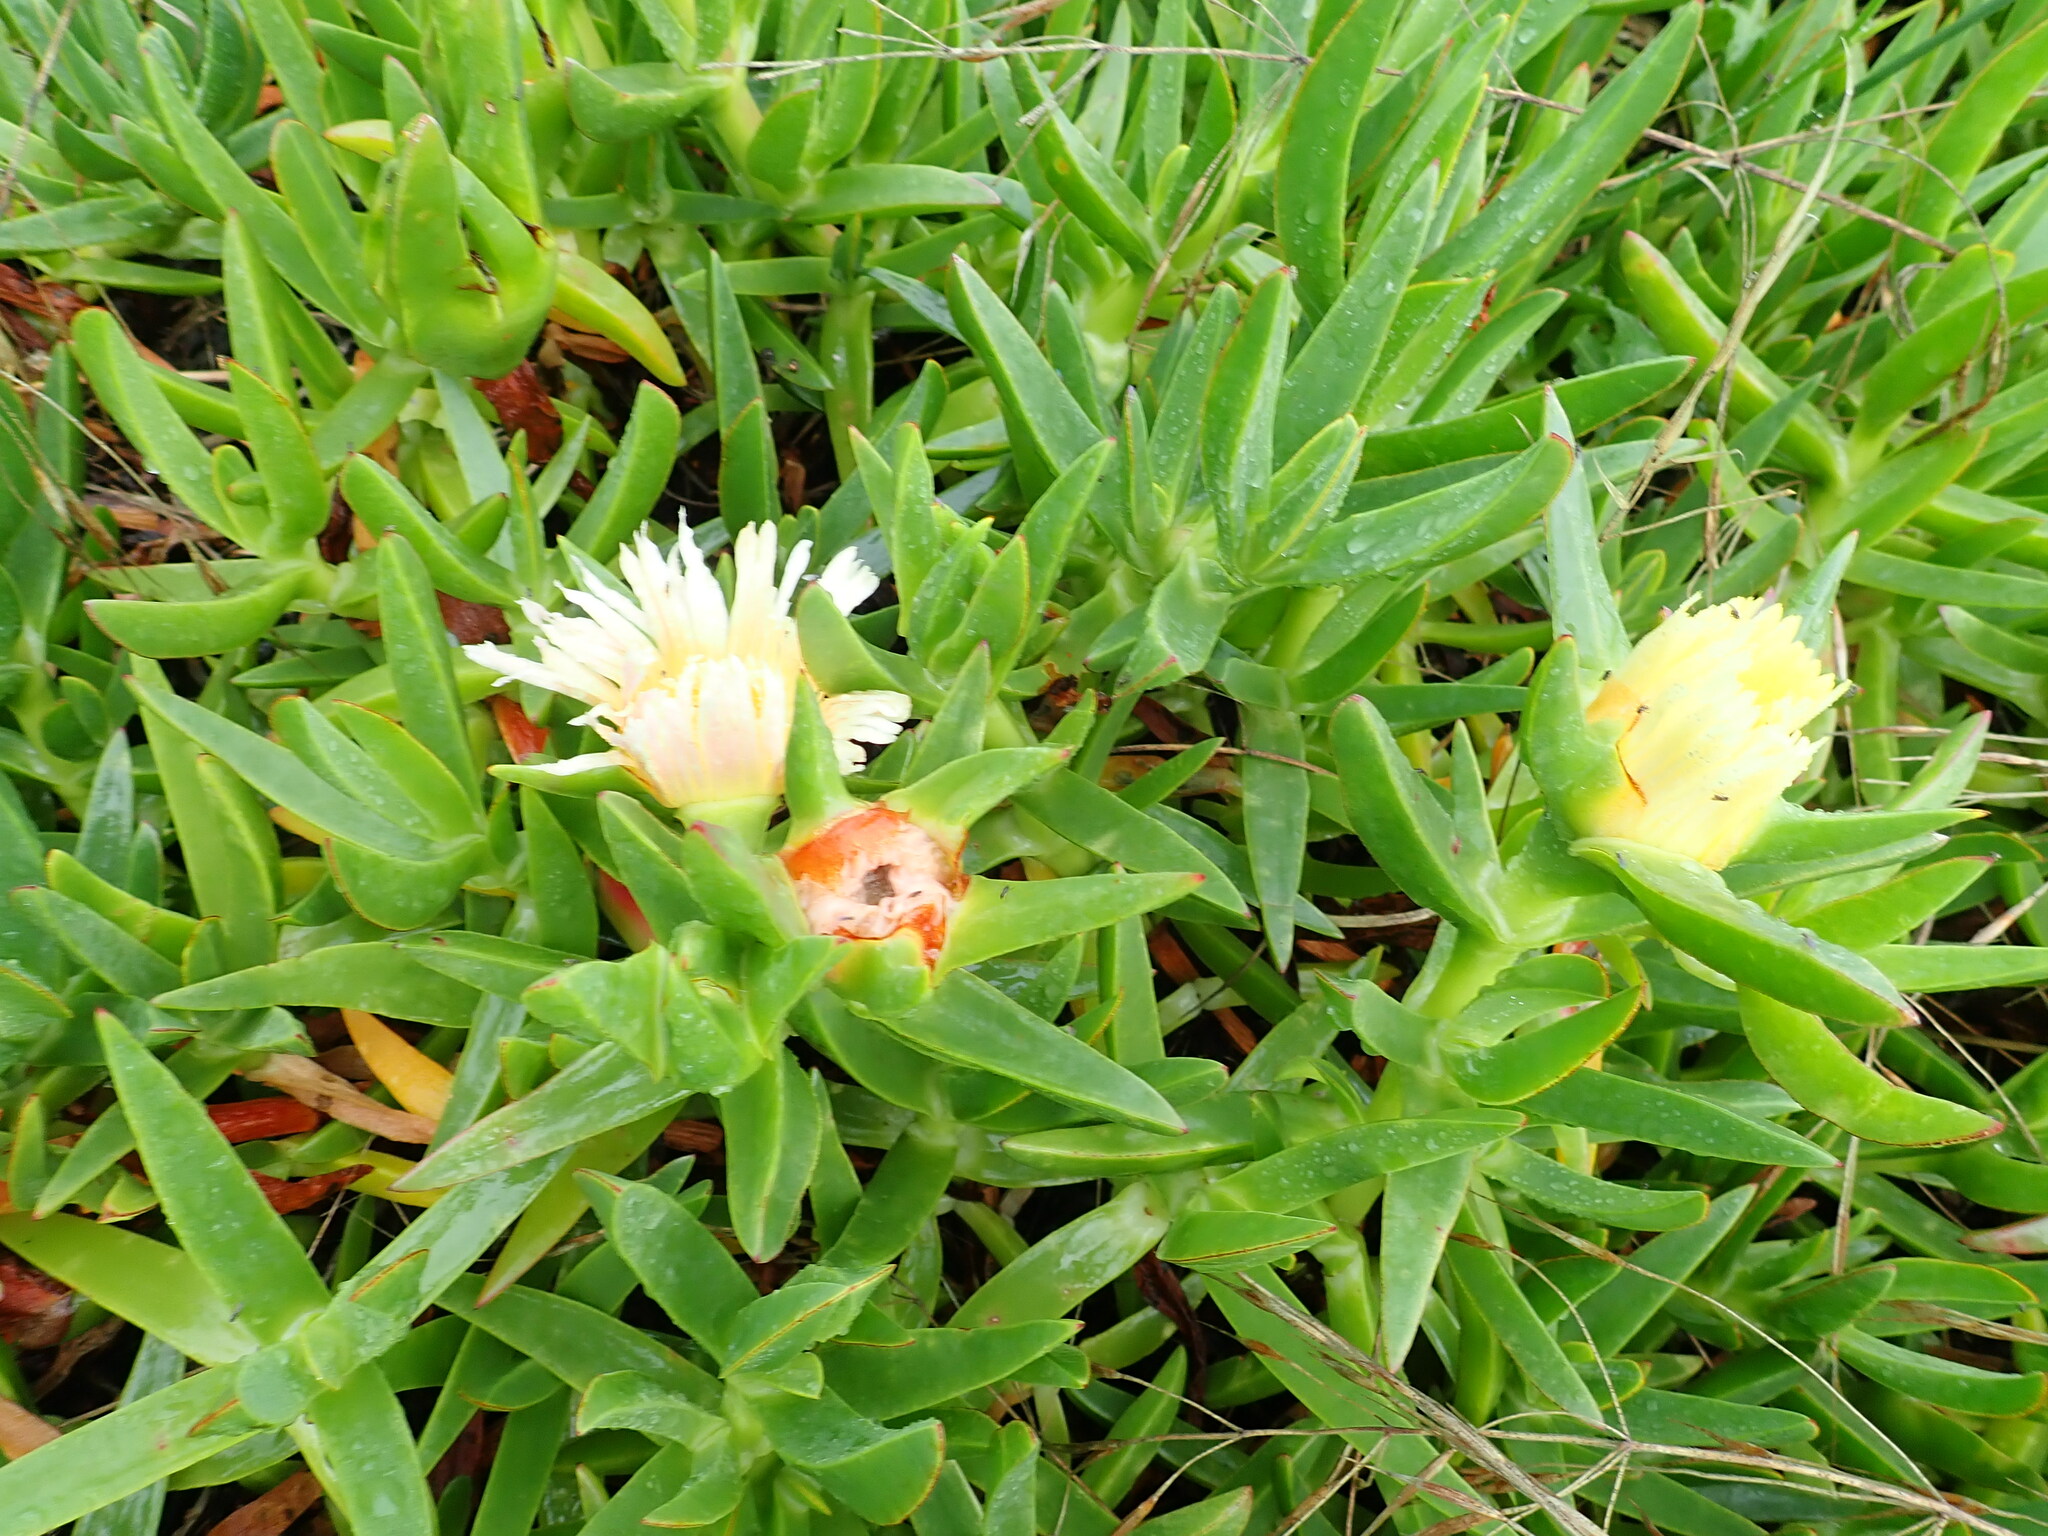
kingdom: Plantae
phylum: Tracheophyta
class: Magnoliopsida
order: Caryophyllales
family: Aizoaceae
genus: Carpobrotus
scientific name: Carpobrotus edulis
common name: Hottentot-fig
